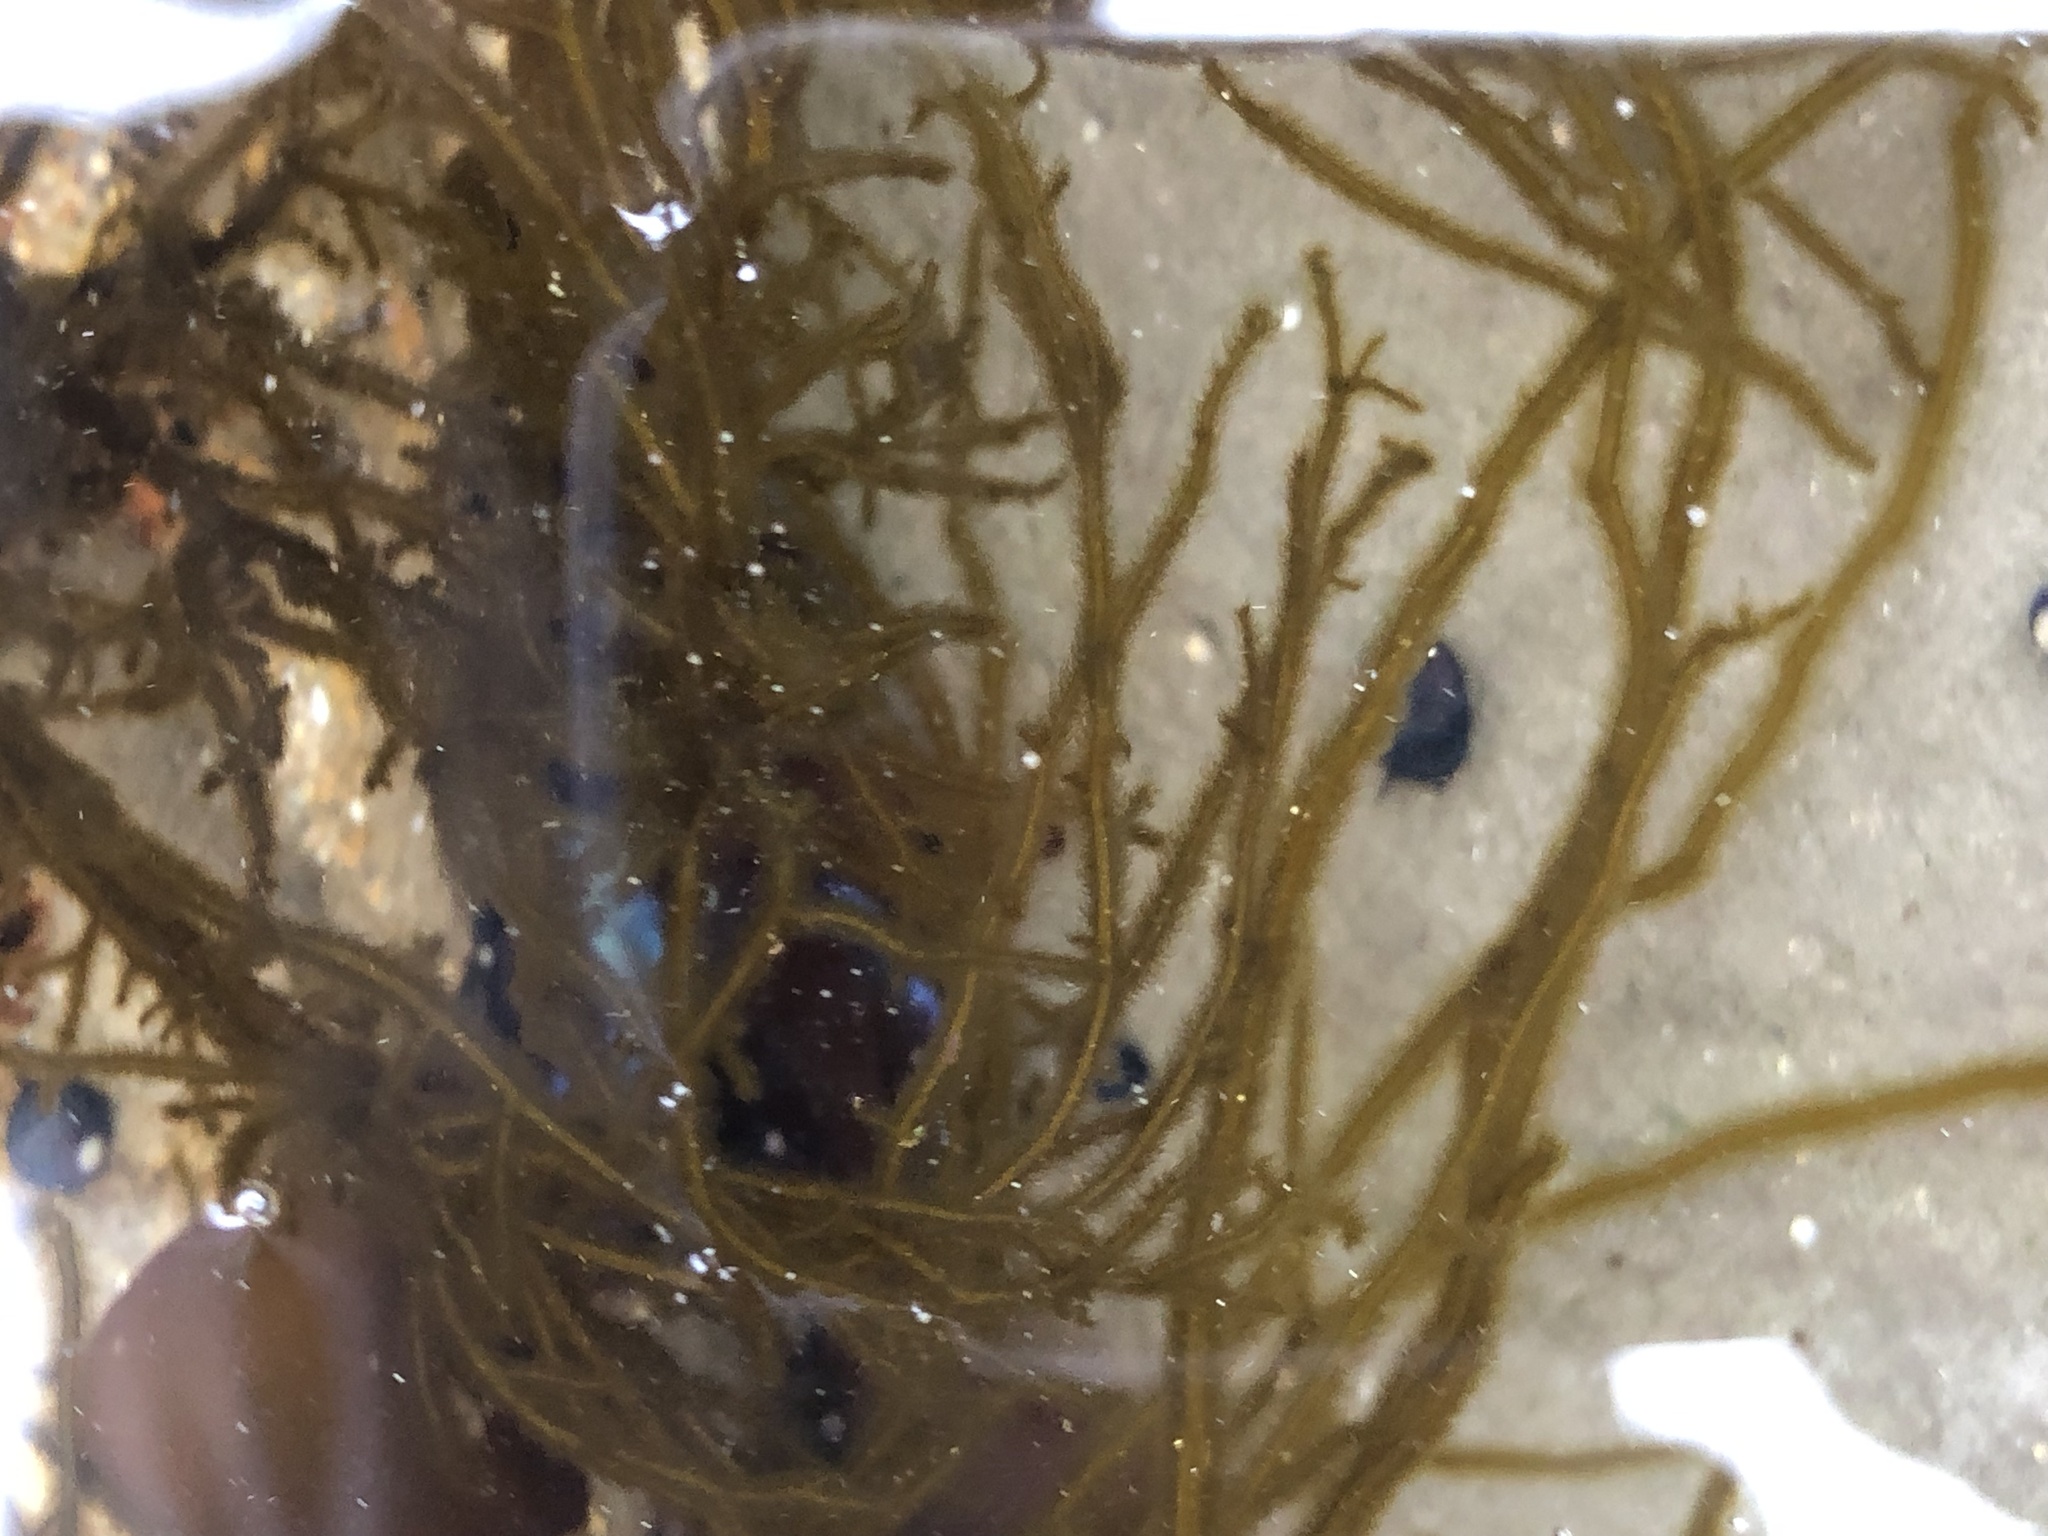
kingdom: Chromista
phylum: Ochrophyta
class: Phaeophyceae
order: Ectocarpales
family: Chordariaceae
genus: Haplogloia
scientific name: Haplogloia andersonii
